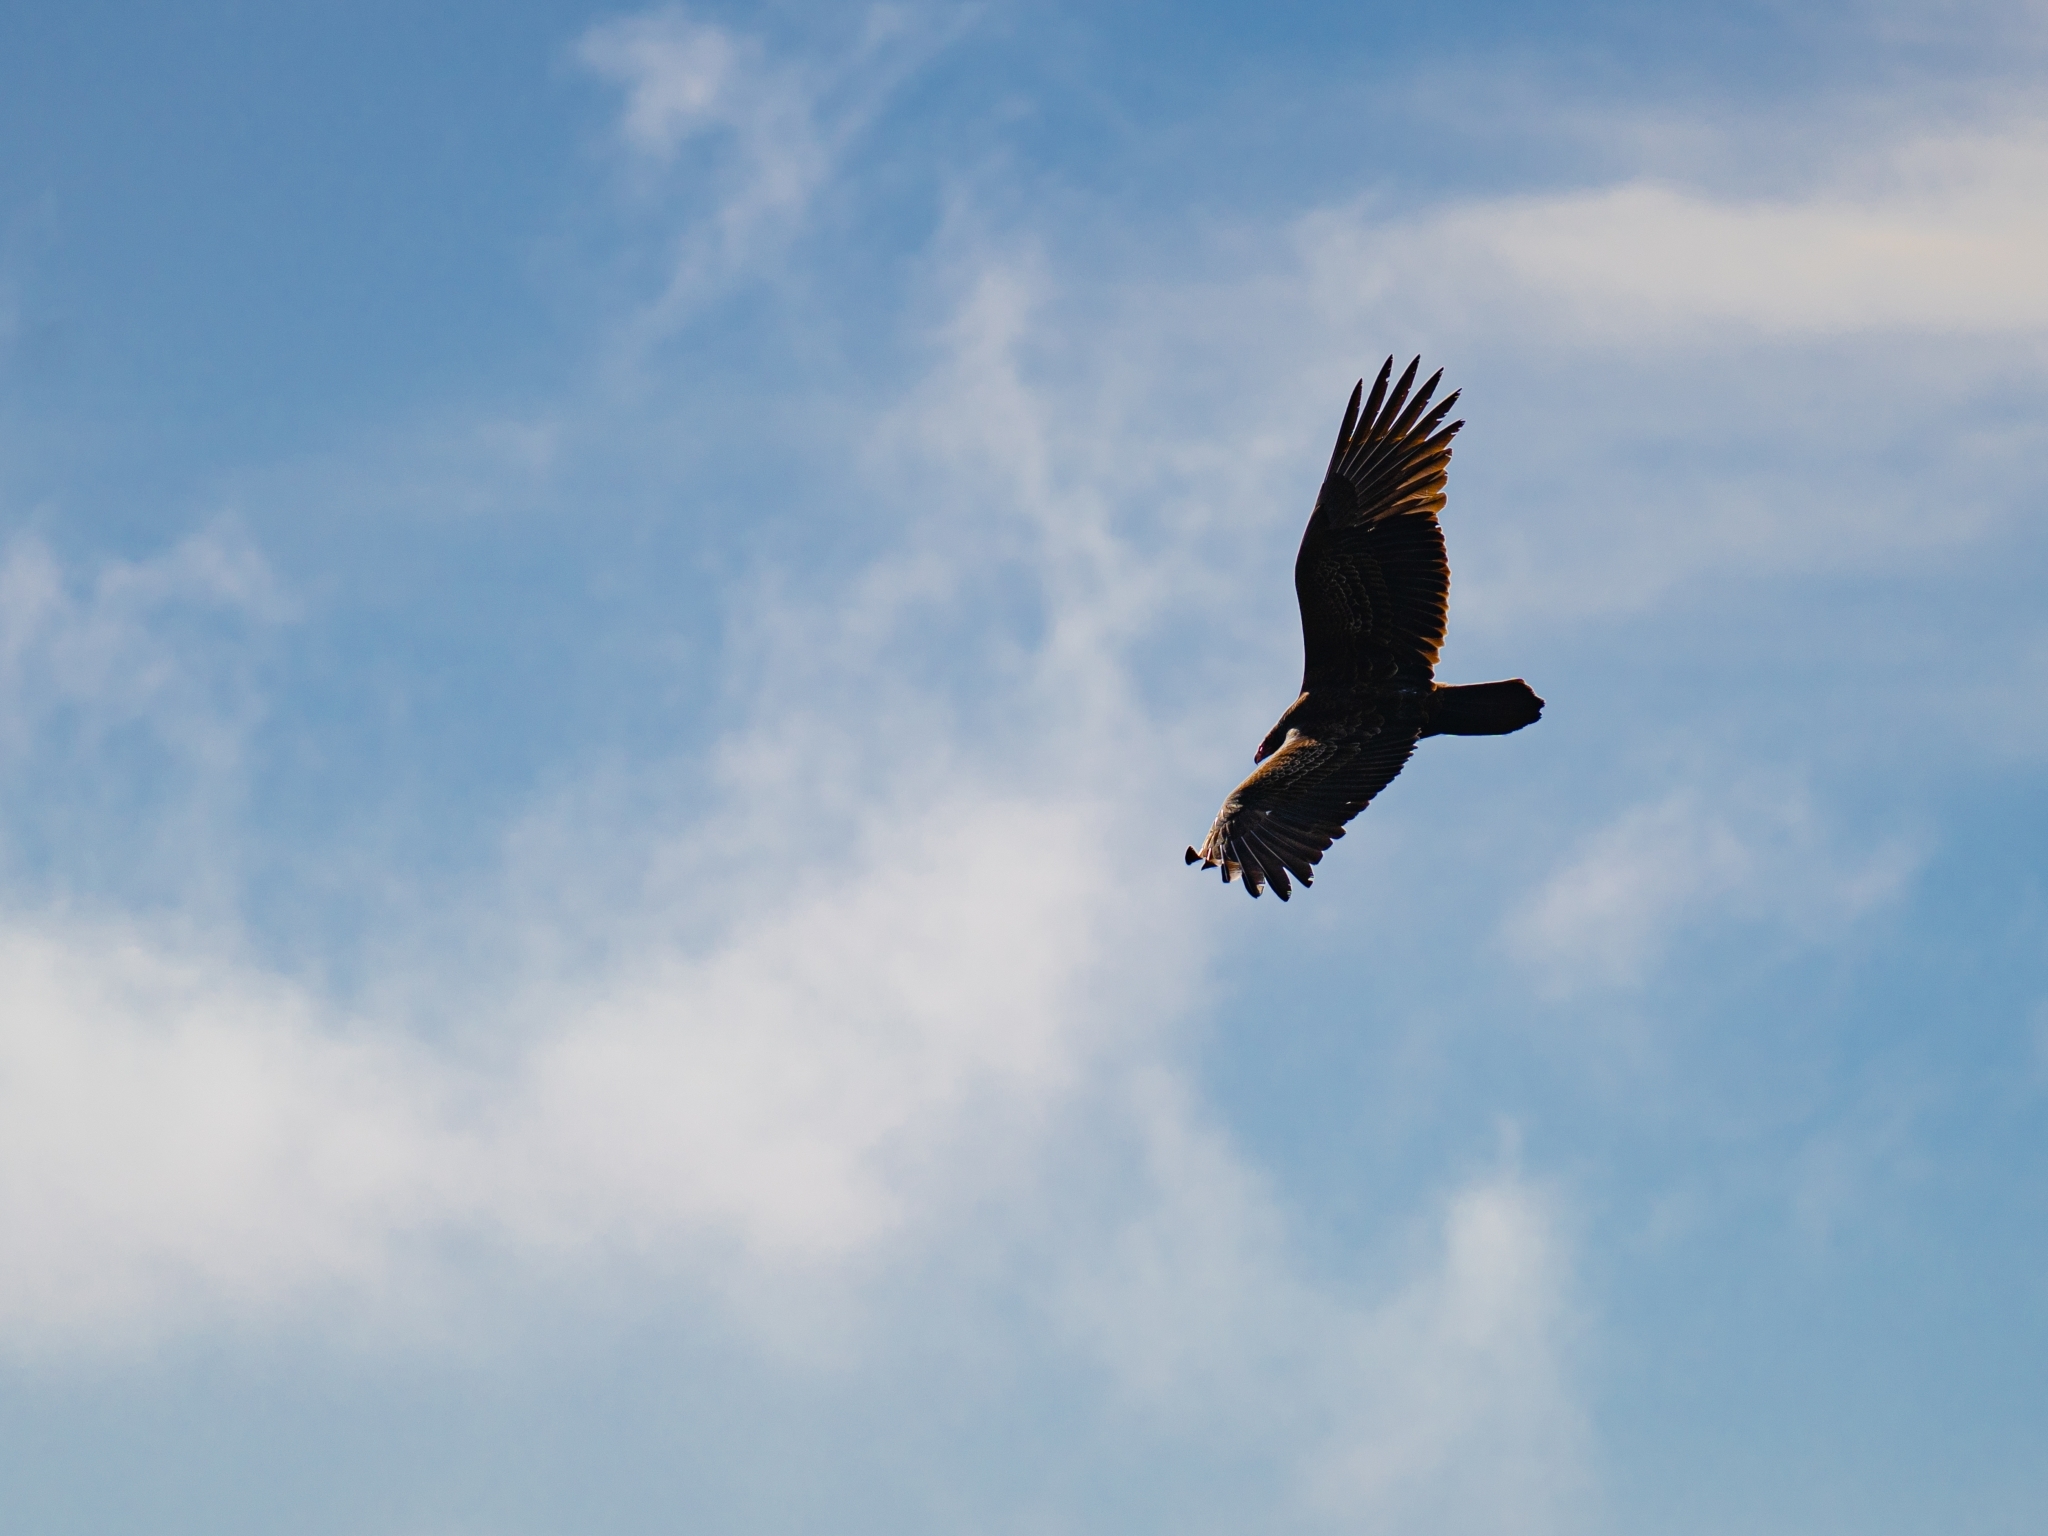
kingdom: Animalia
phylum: Chordata
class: Aves
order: Accipitriformes
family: Cathartidae
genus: Cathartes
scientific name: Cathartes aura
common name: Turkey vulture
